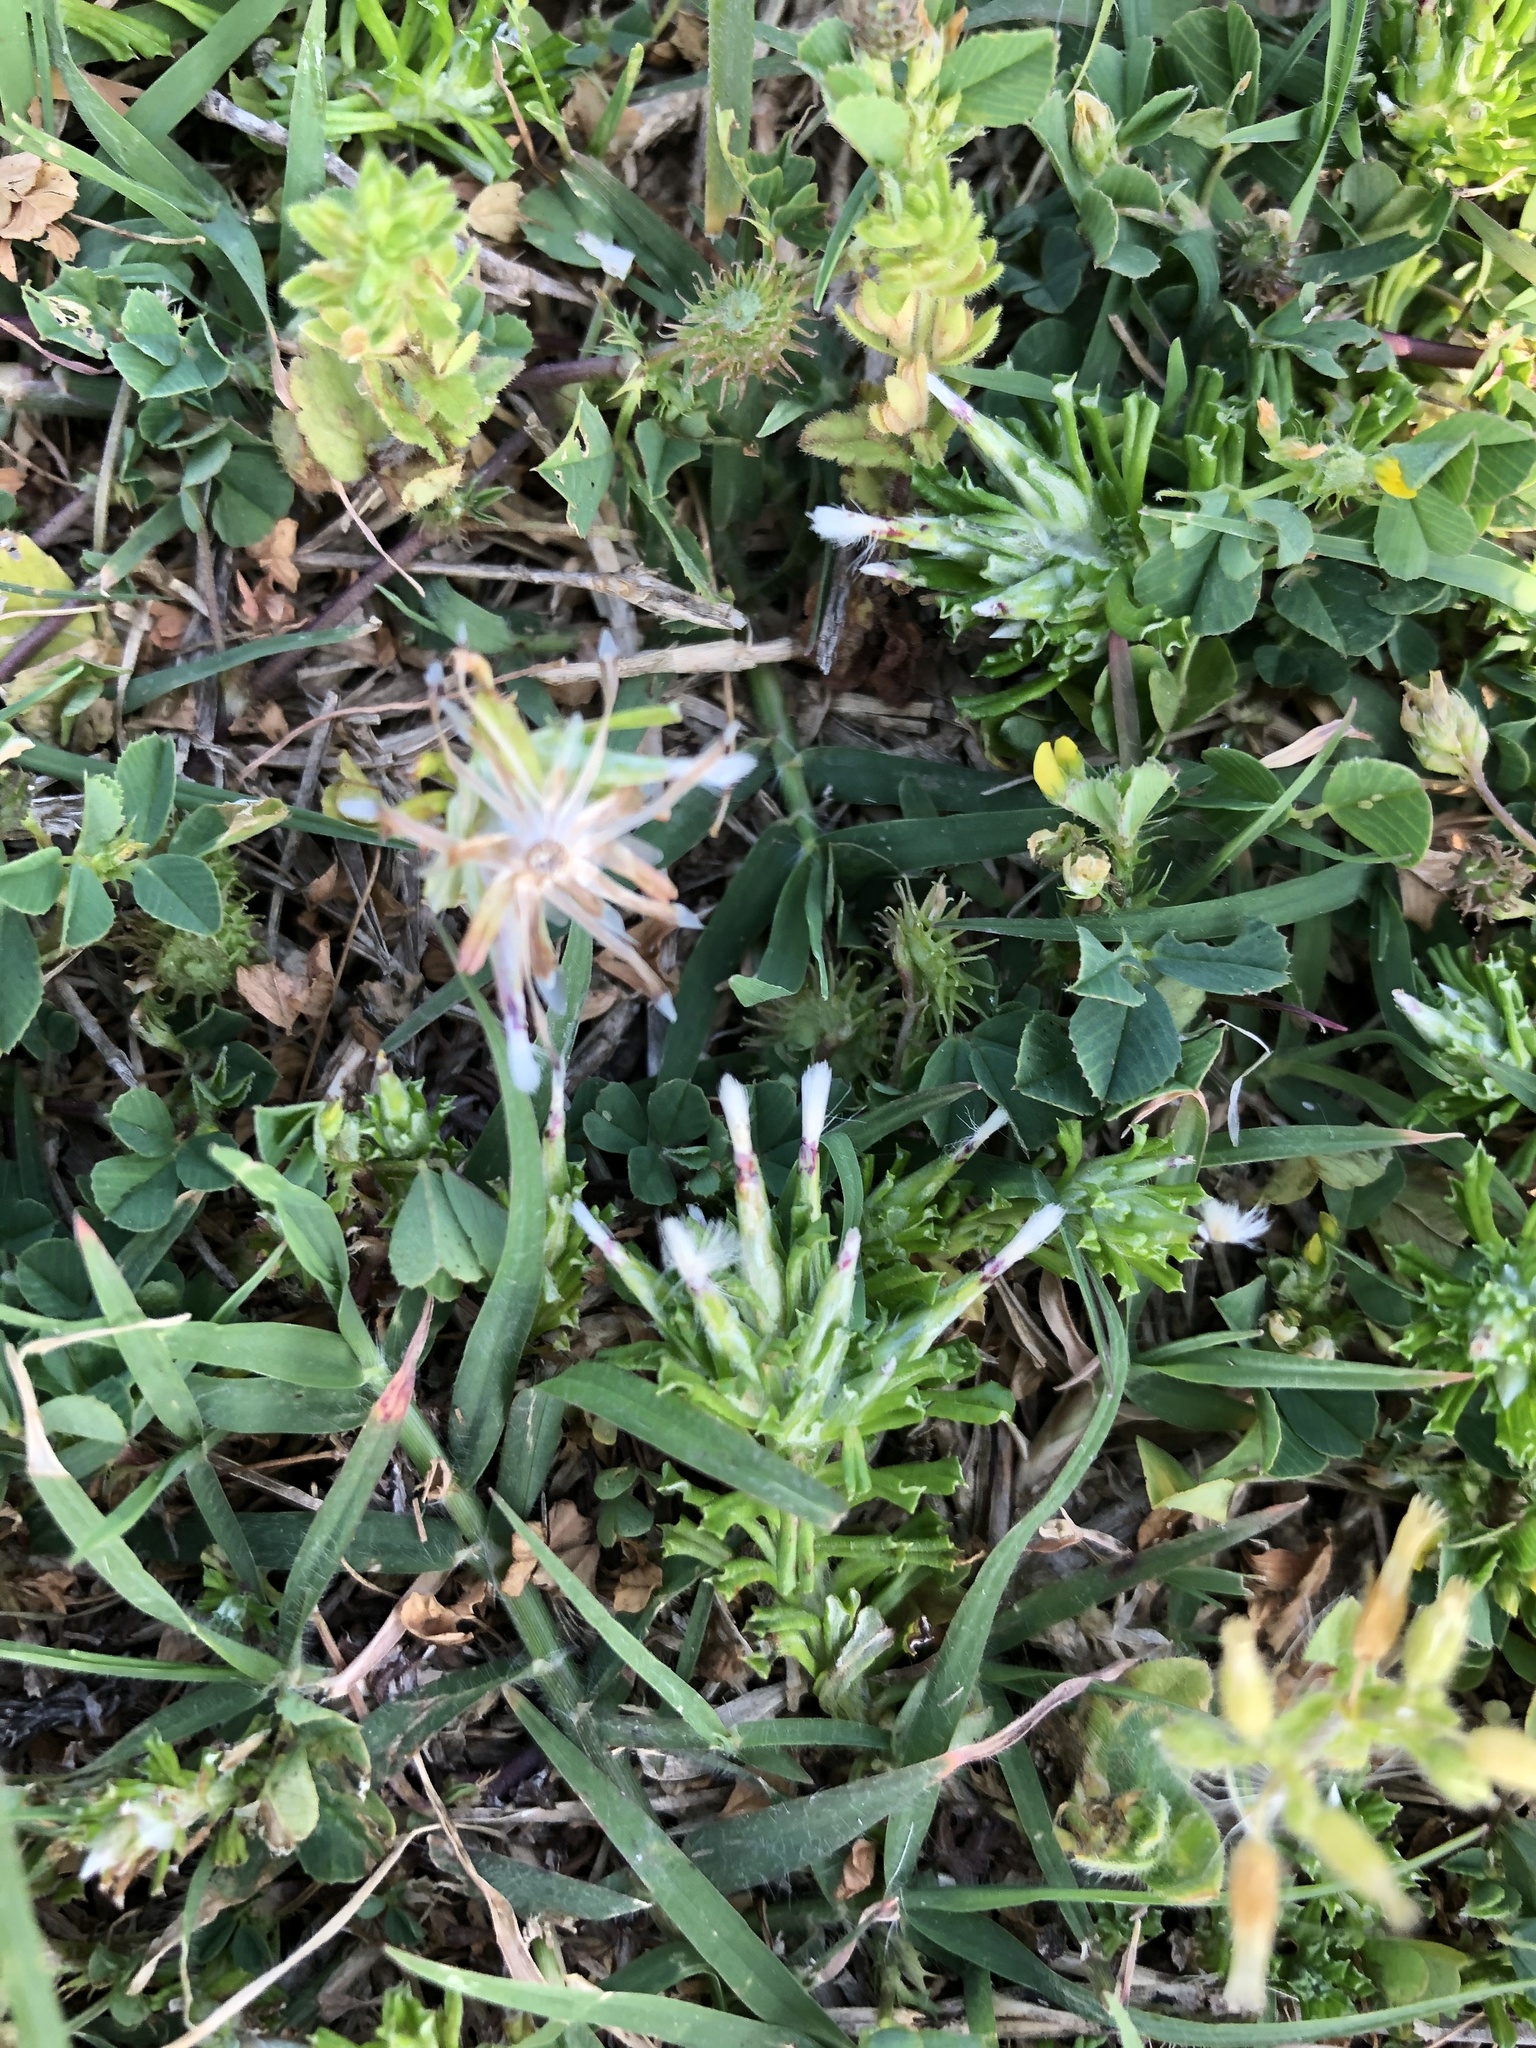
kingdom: Plantae
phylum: Tracheophyta
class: Magnoliopsida
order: Asterales
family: Asteraceae
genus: Facelis
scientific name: Facelis retusa
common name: Annual trampweed
